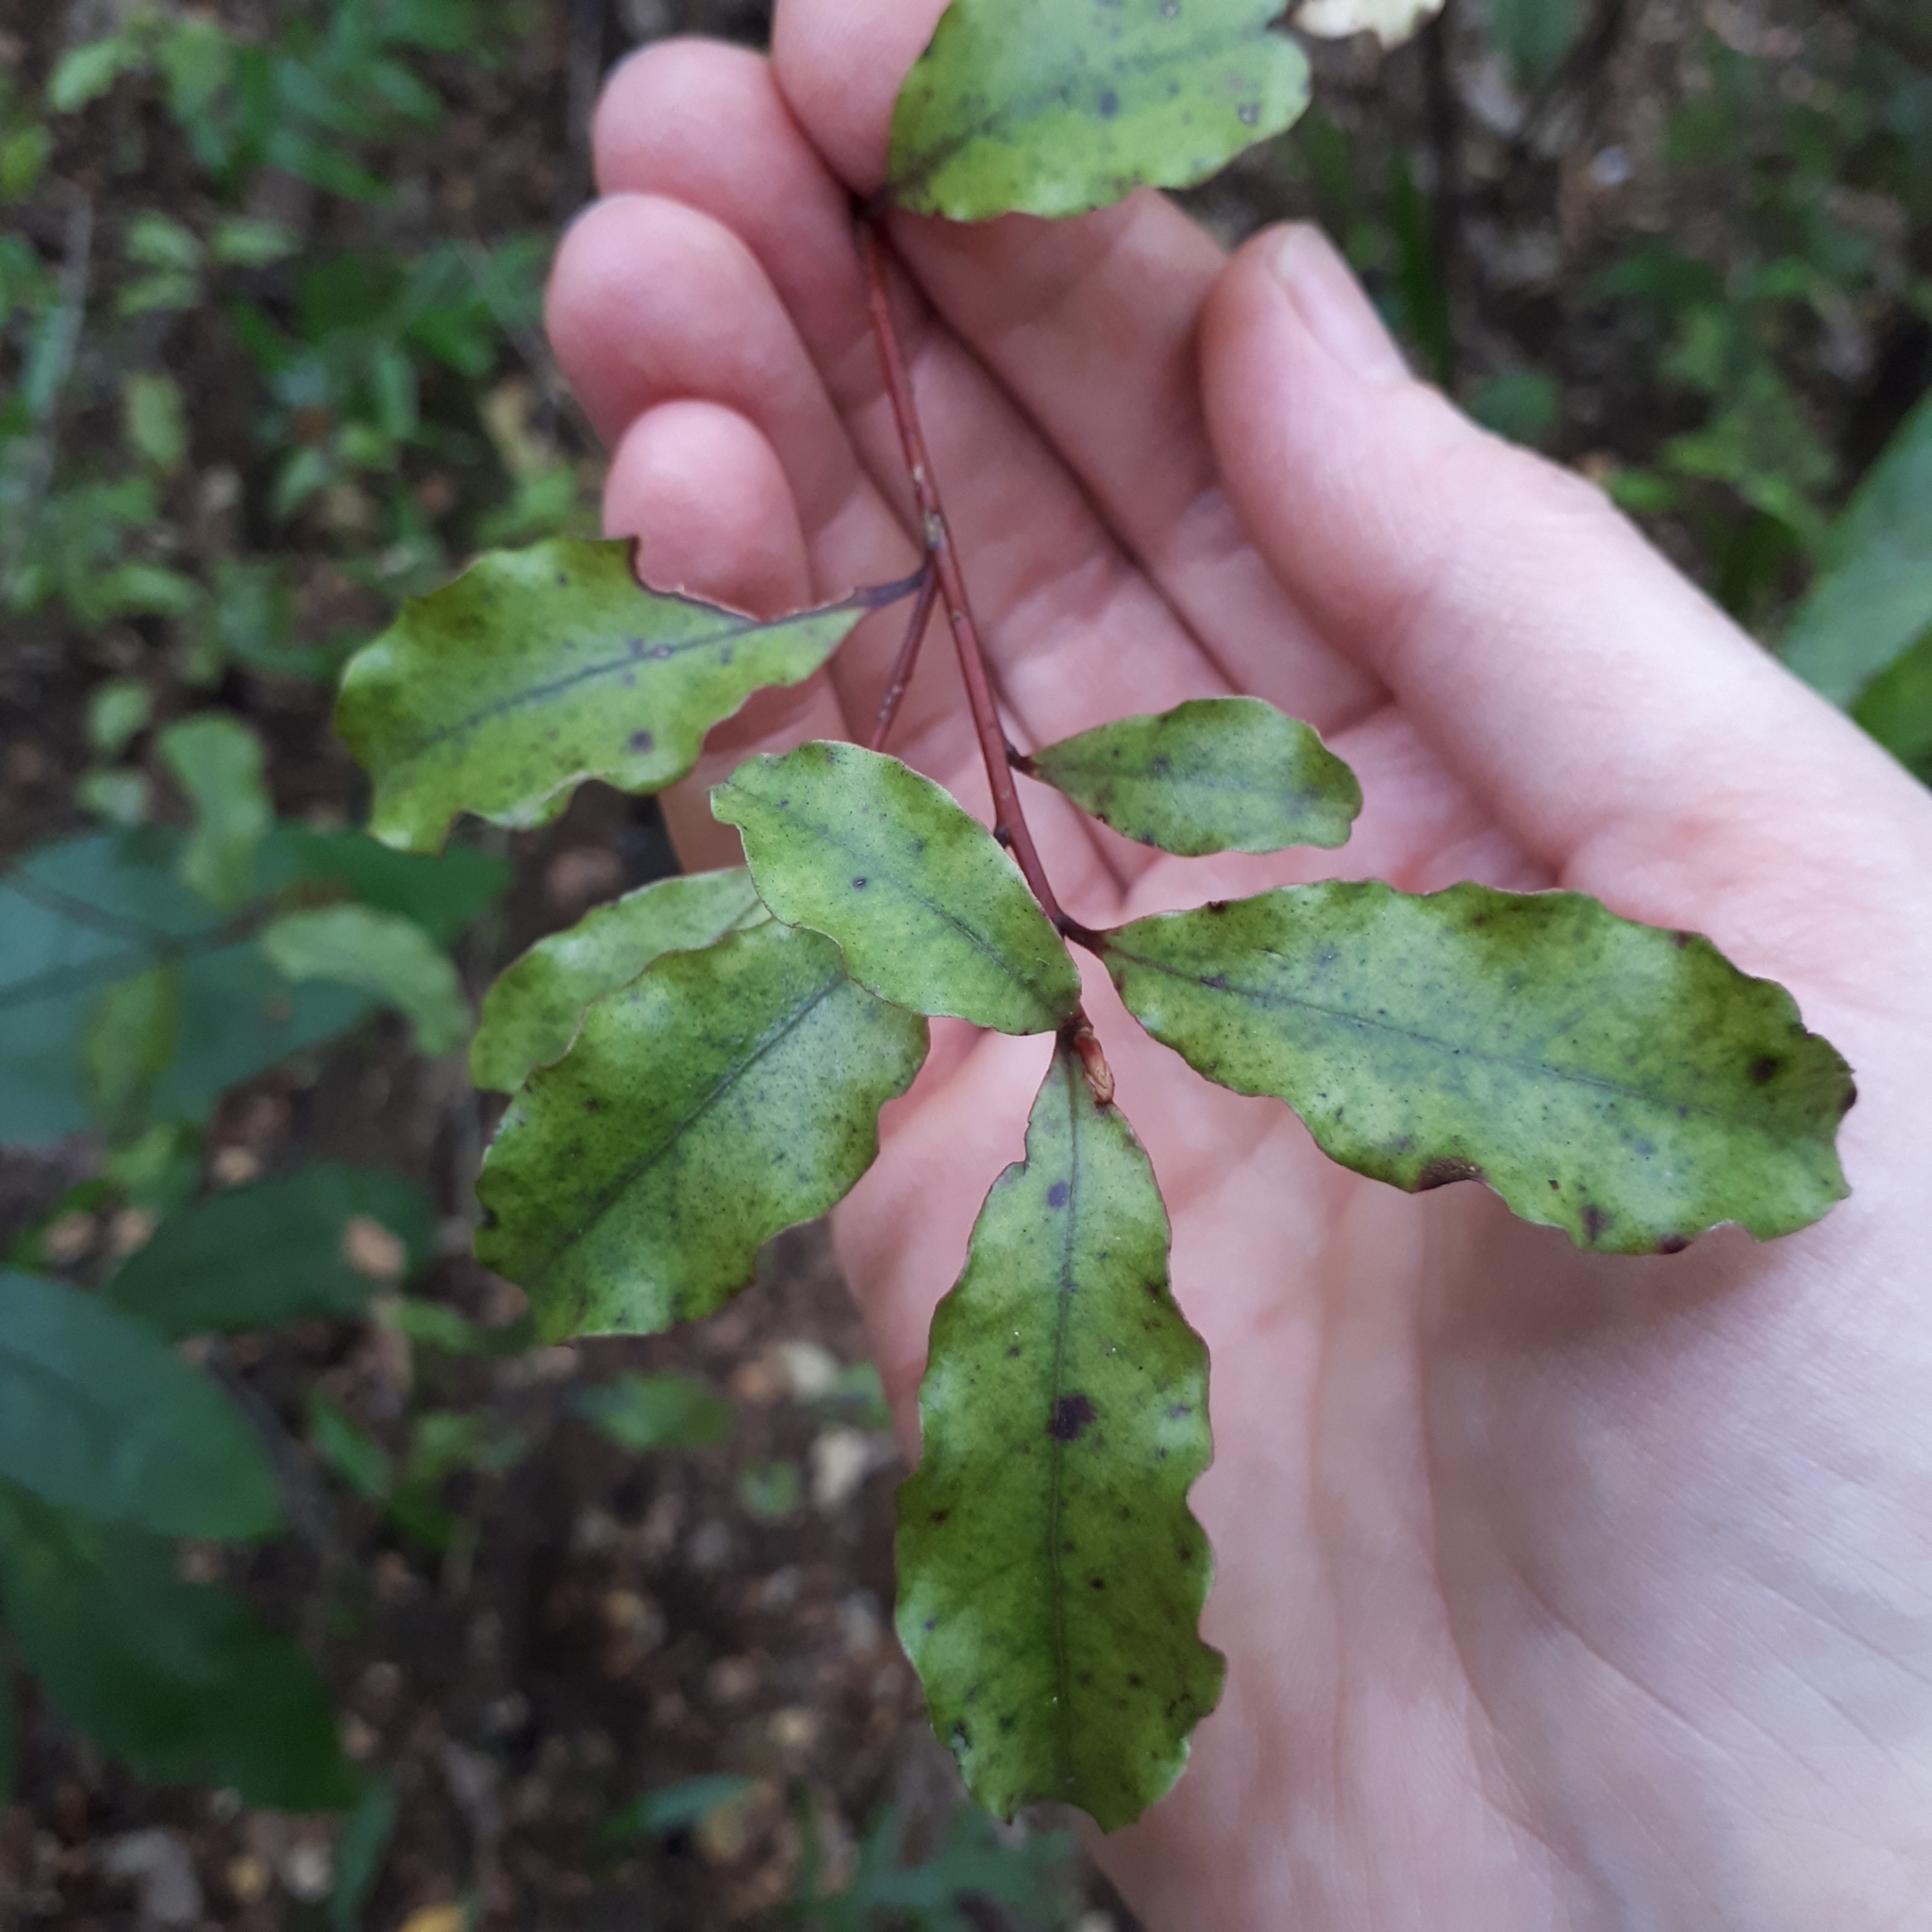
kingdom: Plantae
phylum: Tracheophyta
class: Magnoliopsida
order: Ericales
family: Primulaceae
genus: Myrsine
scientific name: Myrsine australis
